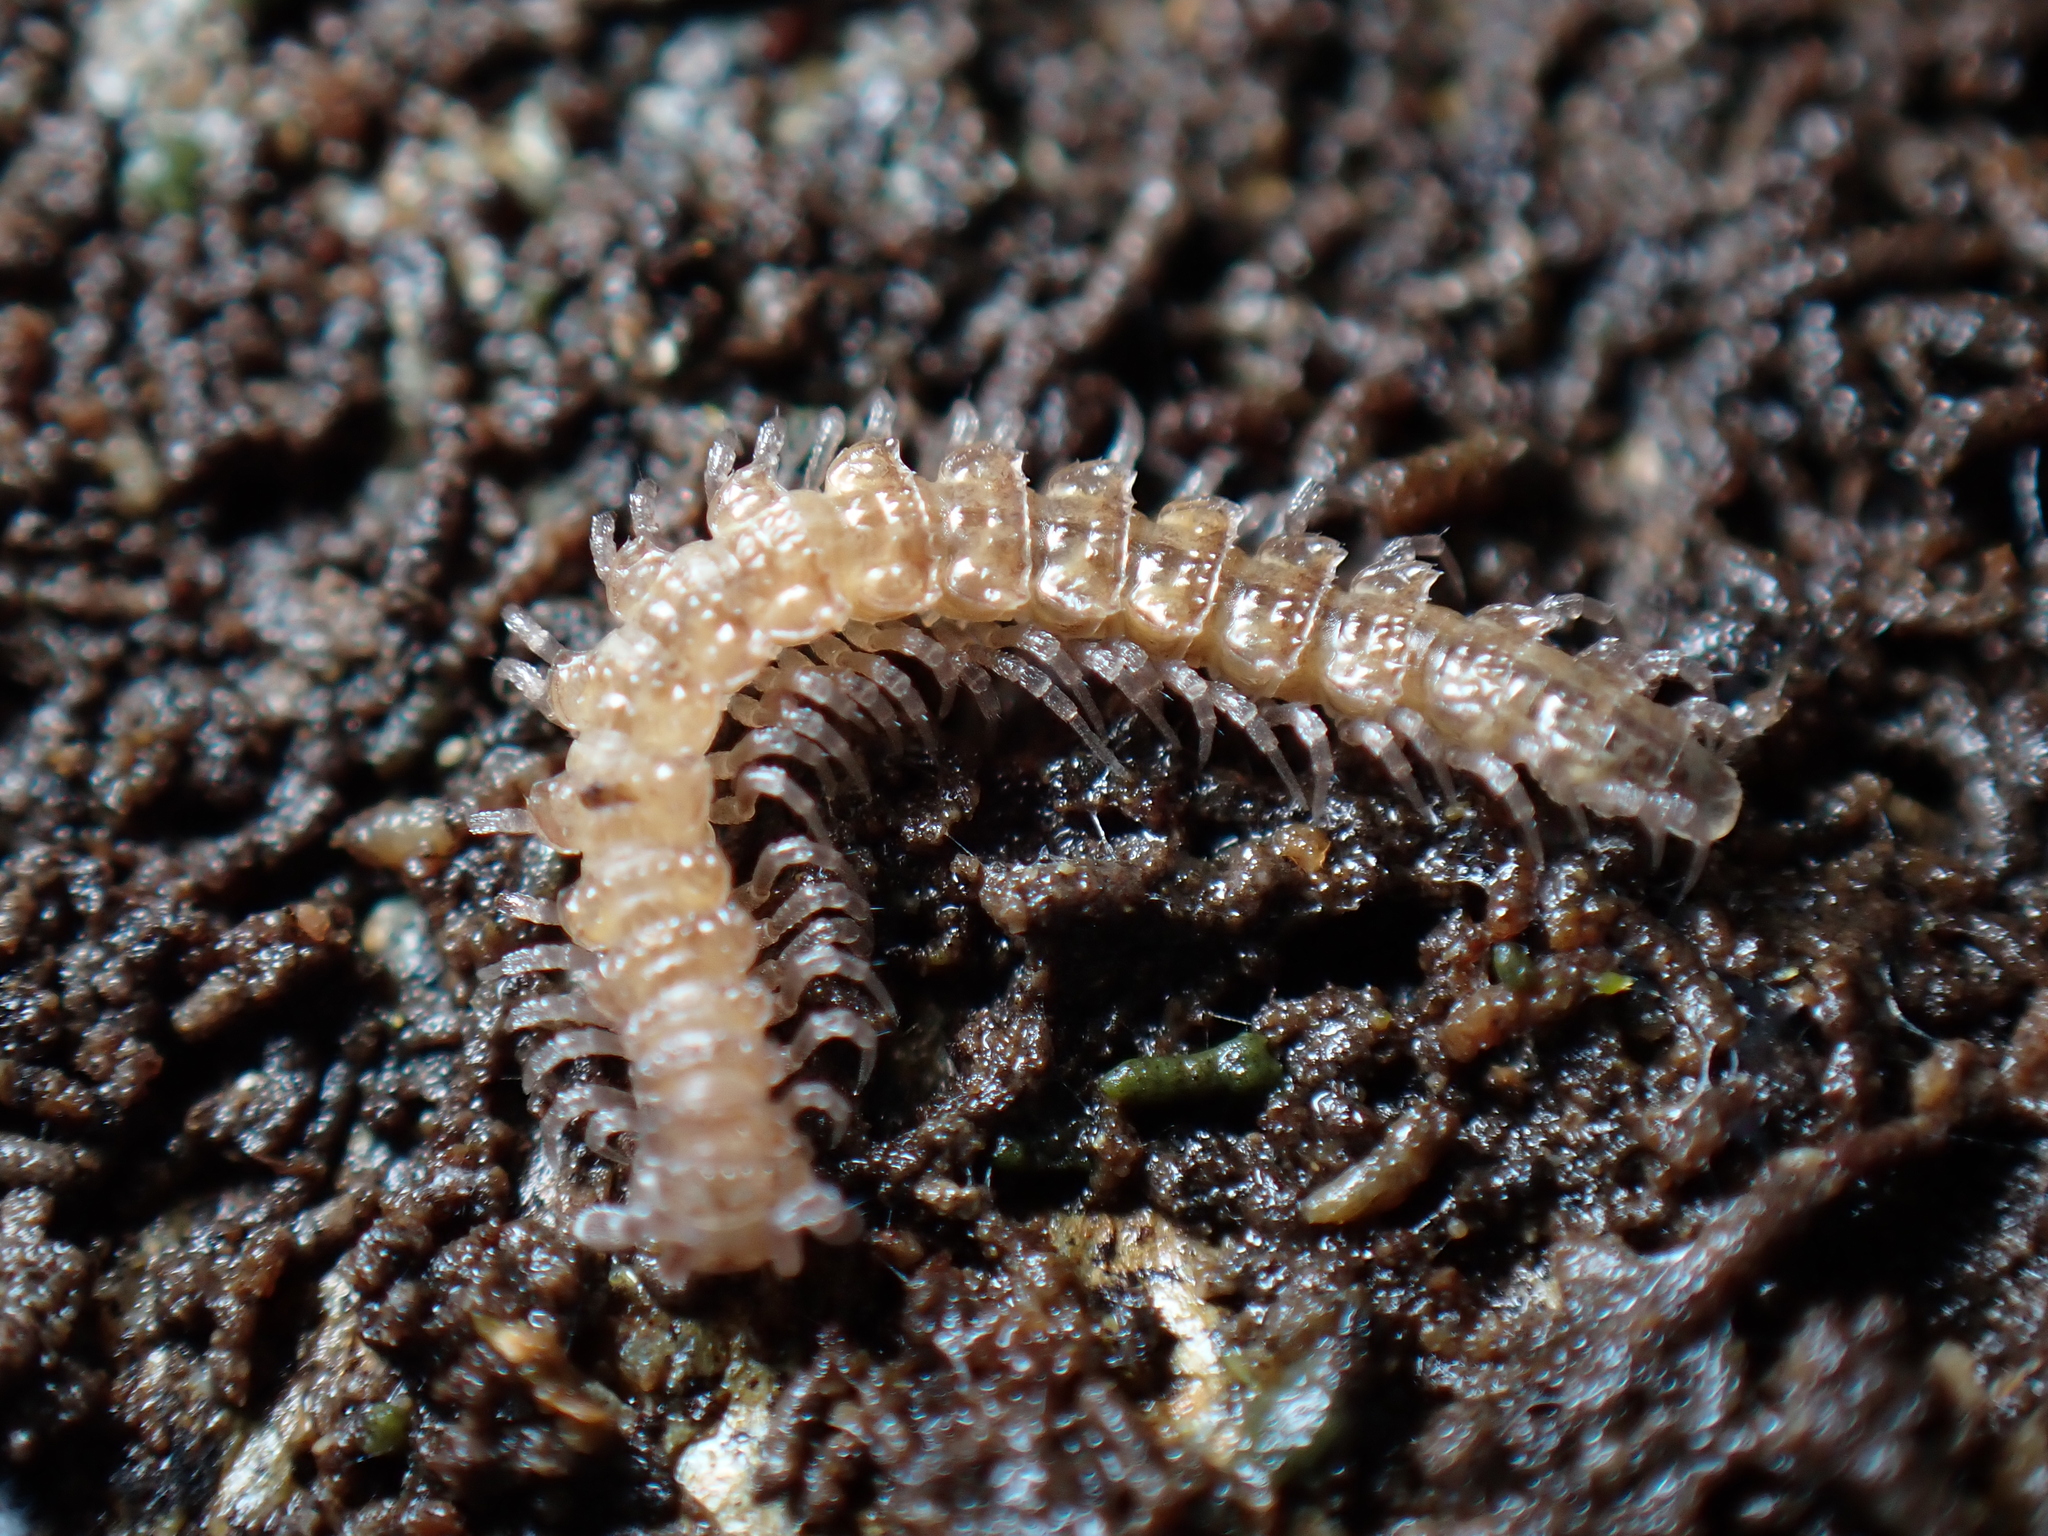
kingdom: Animalia
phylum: Arthropoda
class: Diplopoda
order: Polydesmida
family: Polydesmidae
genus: Brachydesmus
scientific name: Brachydesmus superus
